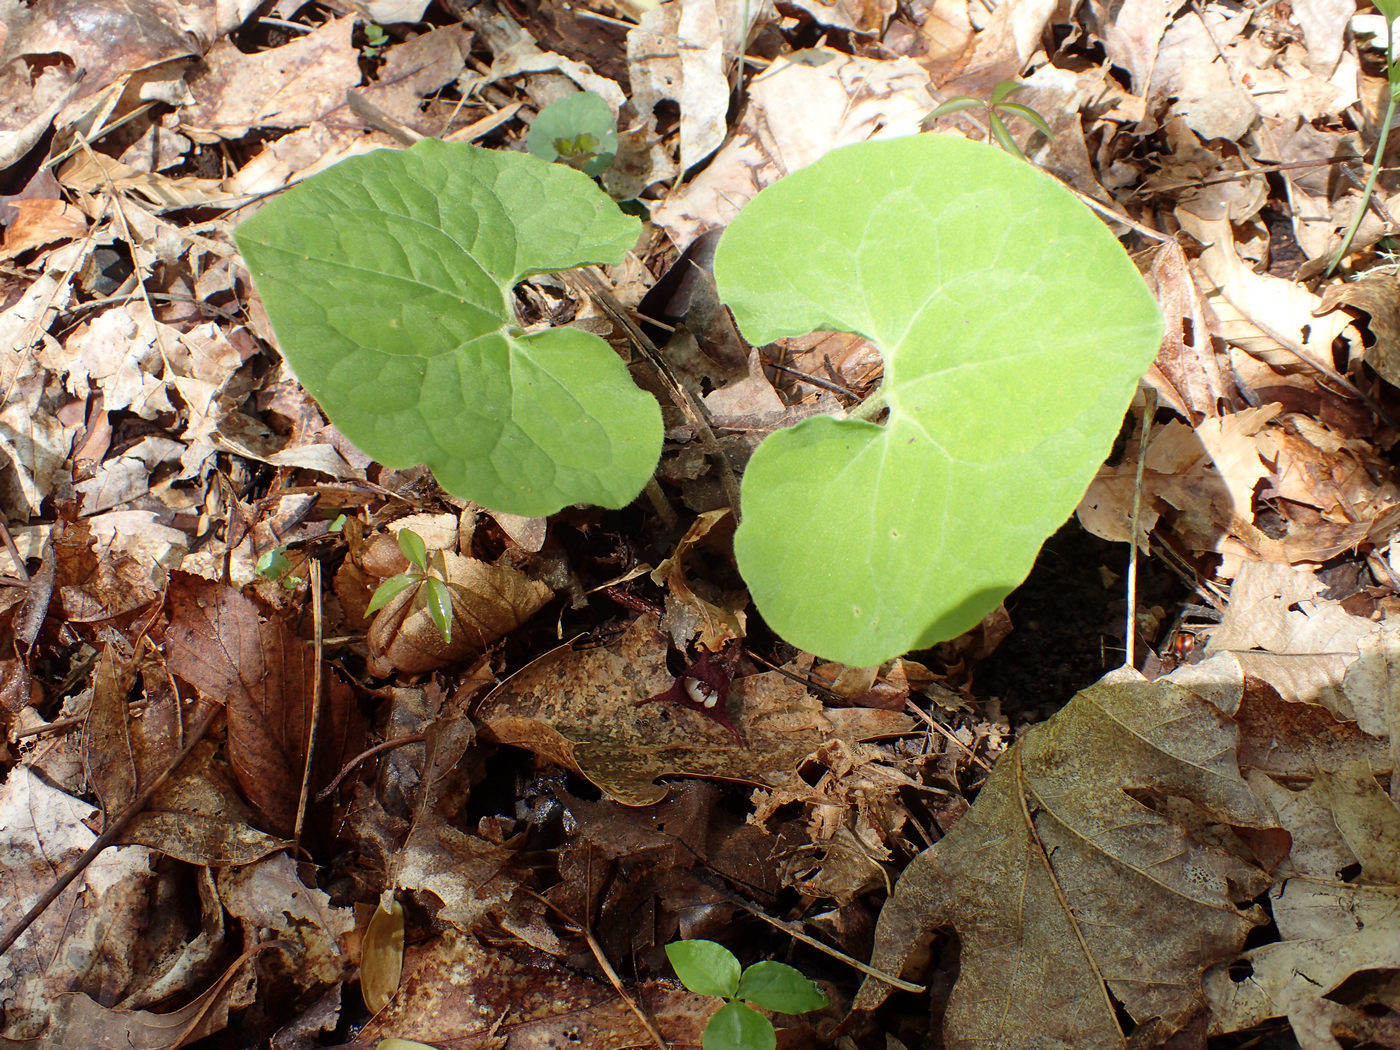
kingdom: Plantae
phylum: Tracheophyta
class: Magnoliopsida
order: Piperales
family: Aristolochiaceae
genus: Asarum
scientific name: Asarum canadense
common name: Wild ginger
